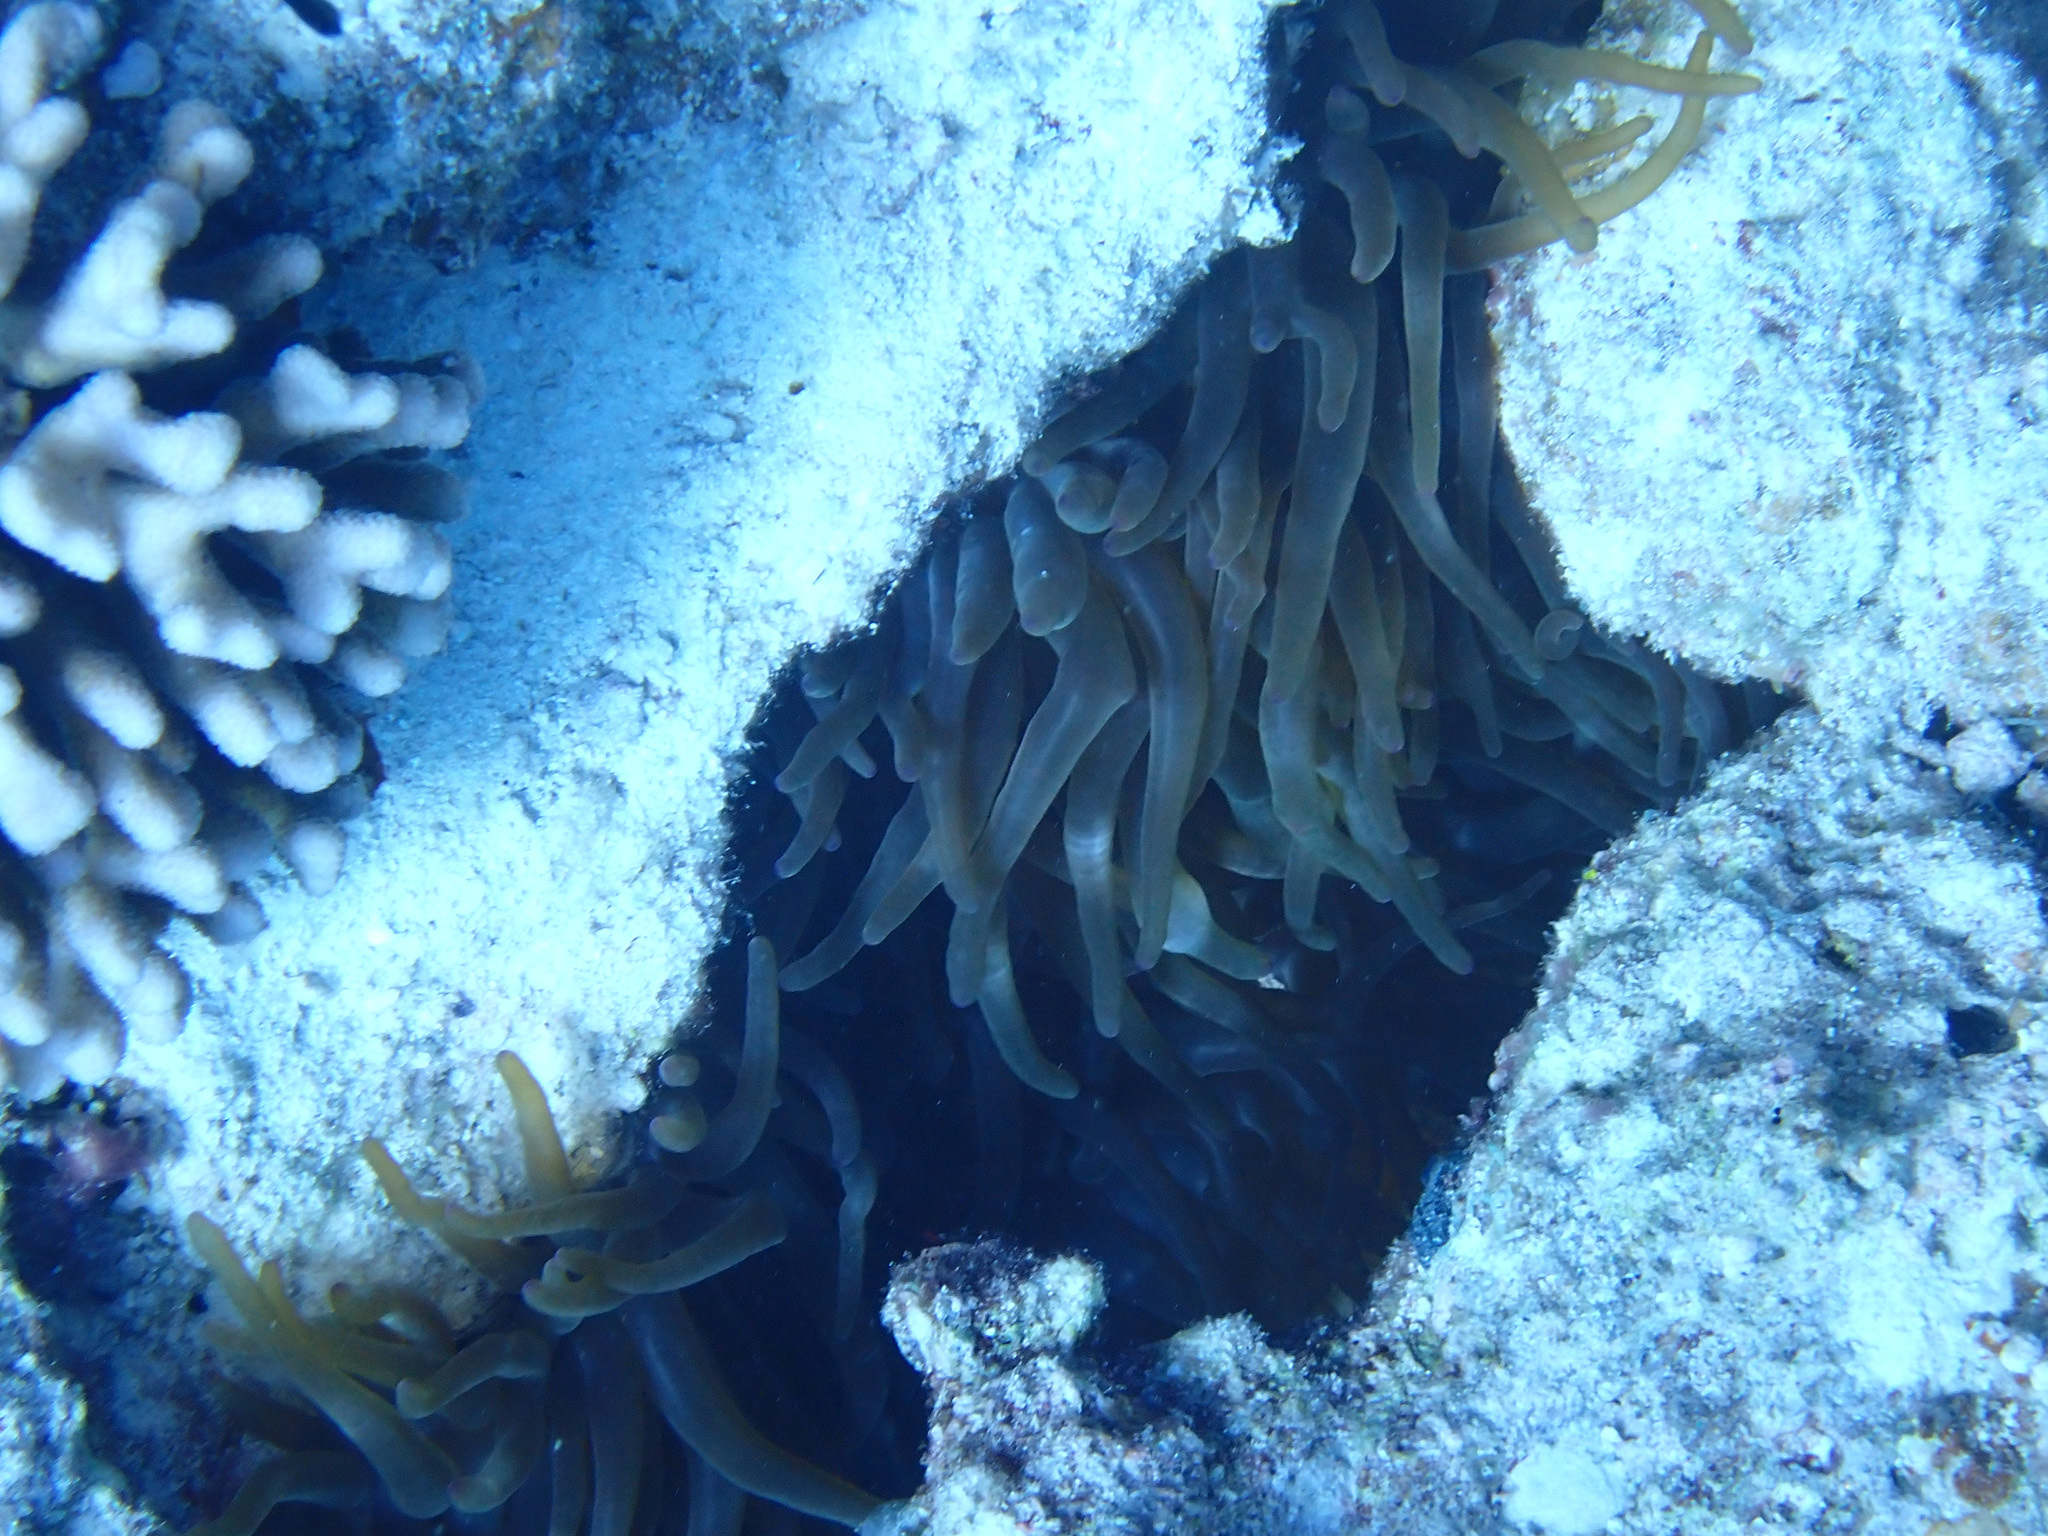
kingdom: Animalia
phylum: Cnidaria
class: Anthozoa
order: Actiniaria
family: Actiniidae
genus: Entacmaea
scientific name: Entacmaea quadricolor
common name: Bulb tentacle sea anemone
